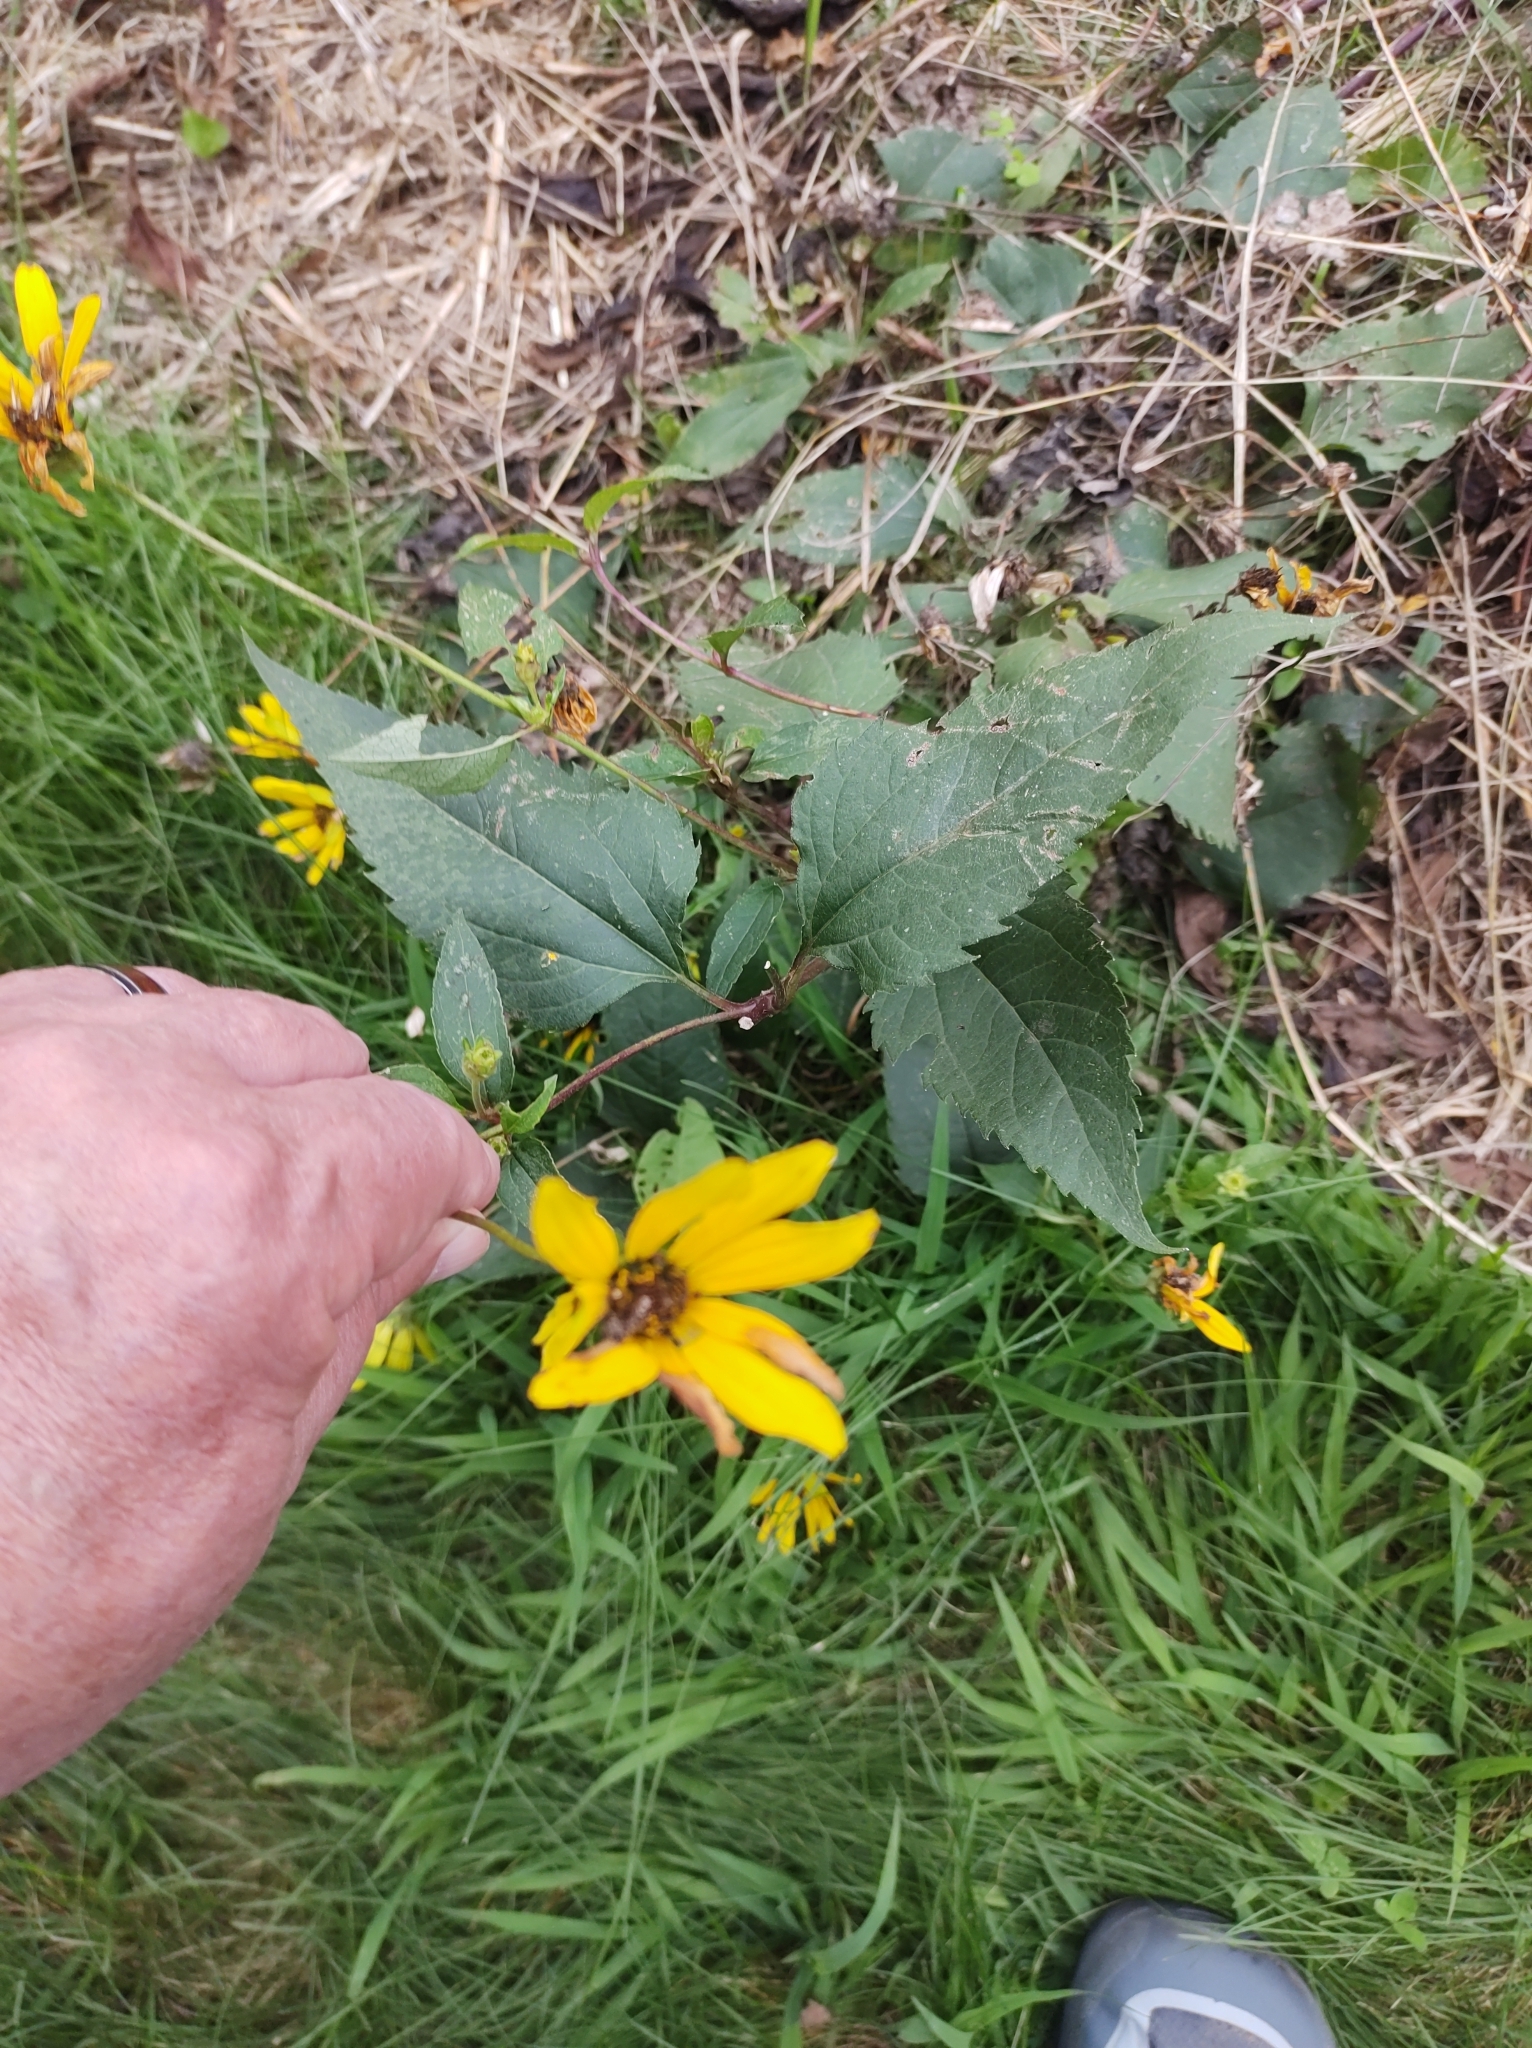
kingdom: Plantae
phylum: Tracheophyta
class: Magnoliopsida
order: Asterales
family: Asteraceae
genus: Heliopsis
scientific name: Heliopsis helianthoides
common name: False sunflower
